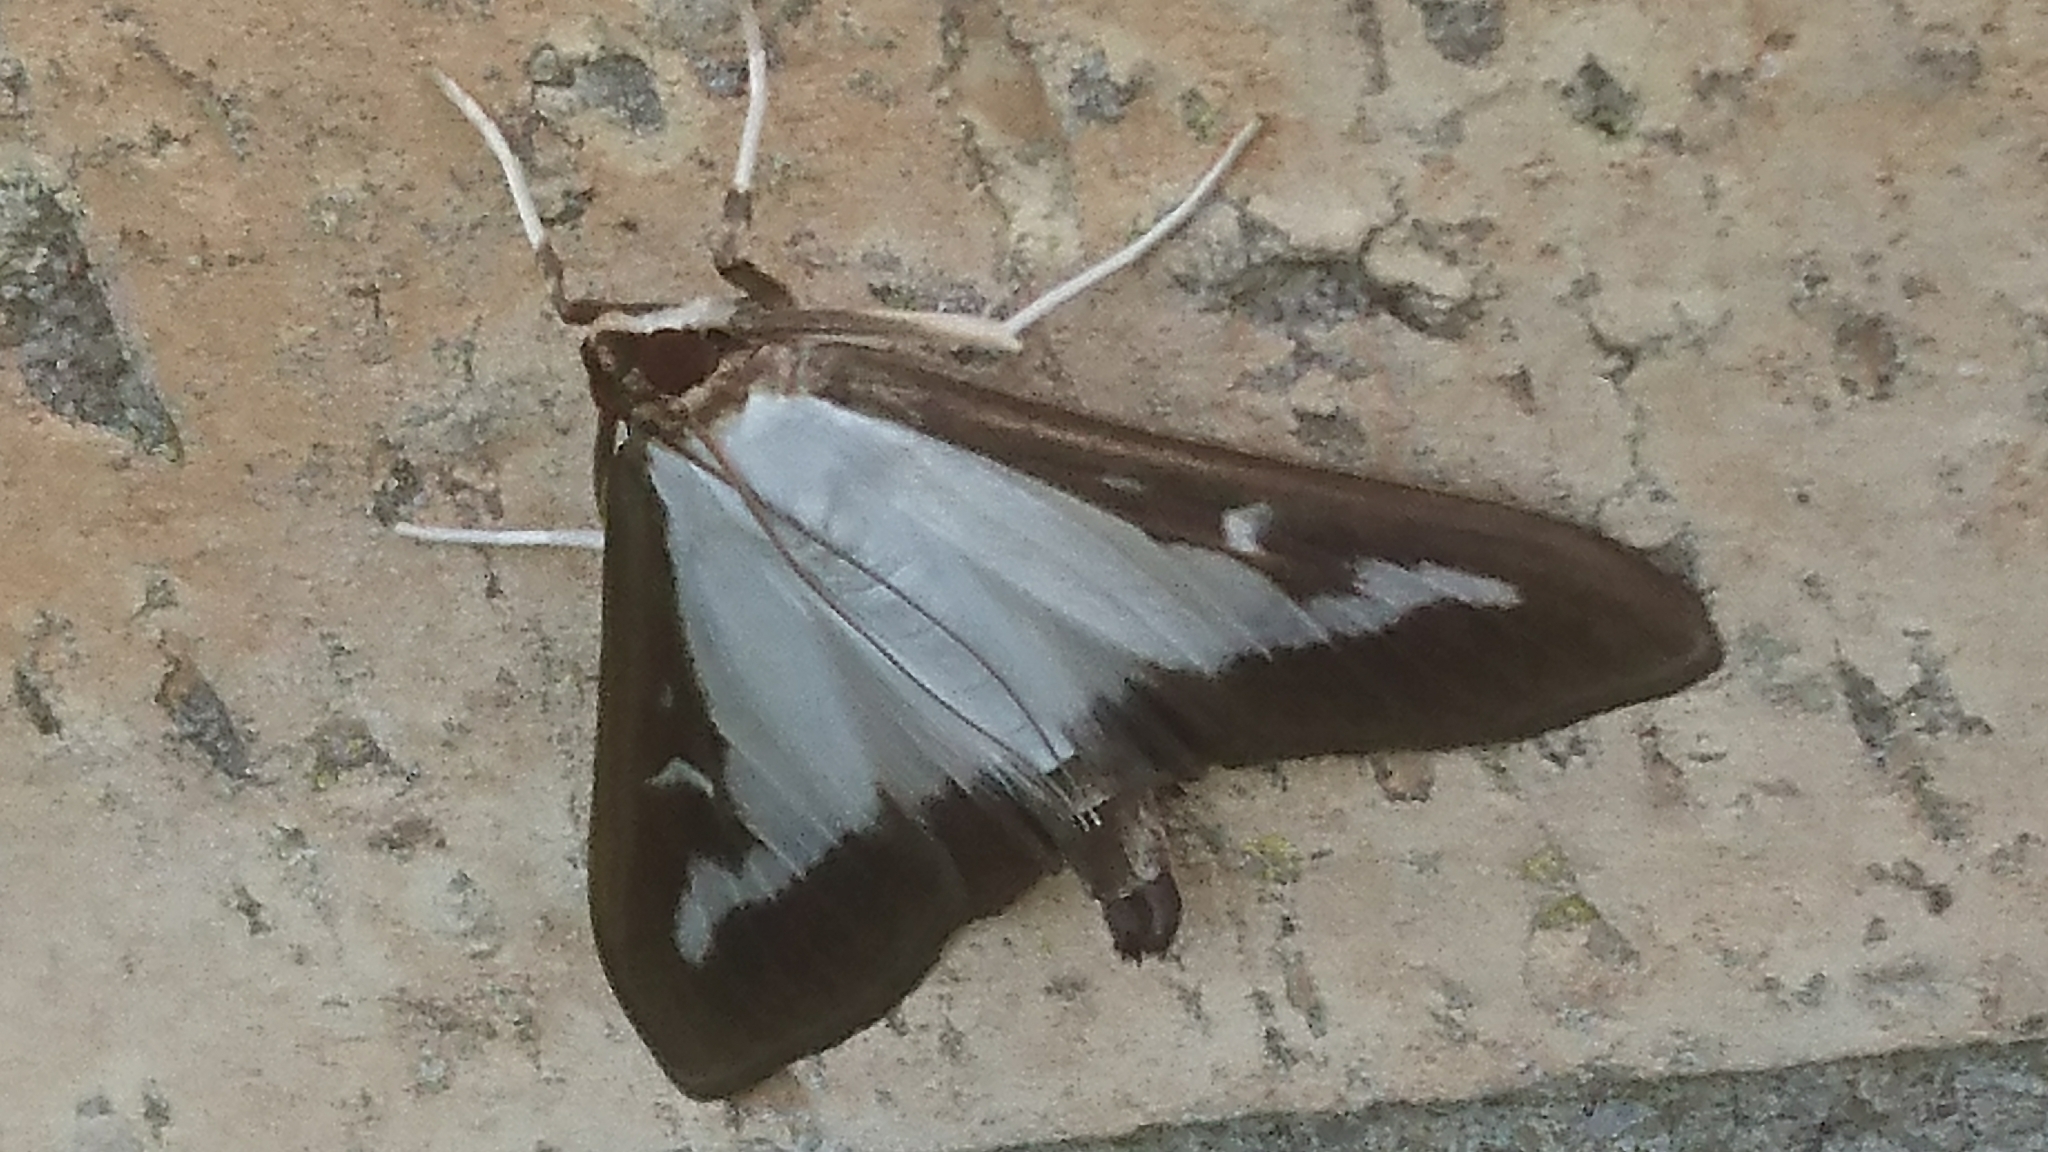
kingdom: Animalia
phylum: Arthropoda
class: Insecta
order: Lepidoptera
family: Crambidae
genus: Cydalima
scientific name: Cydalima perspectalis
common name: Box tree moth
